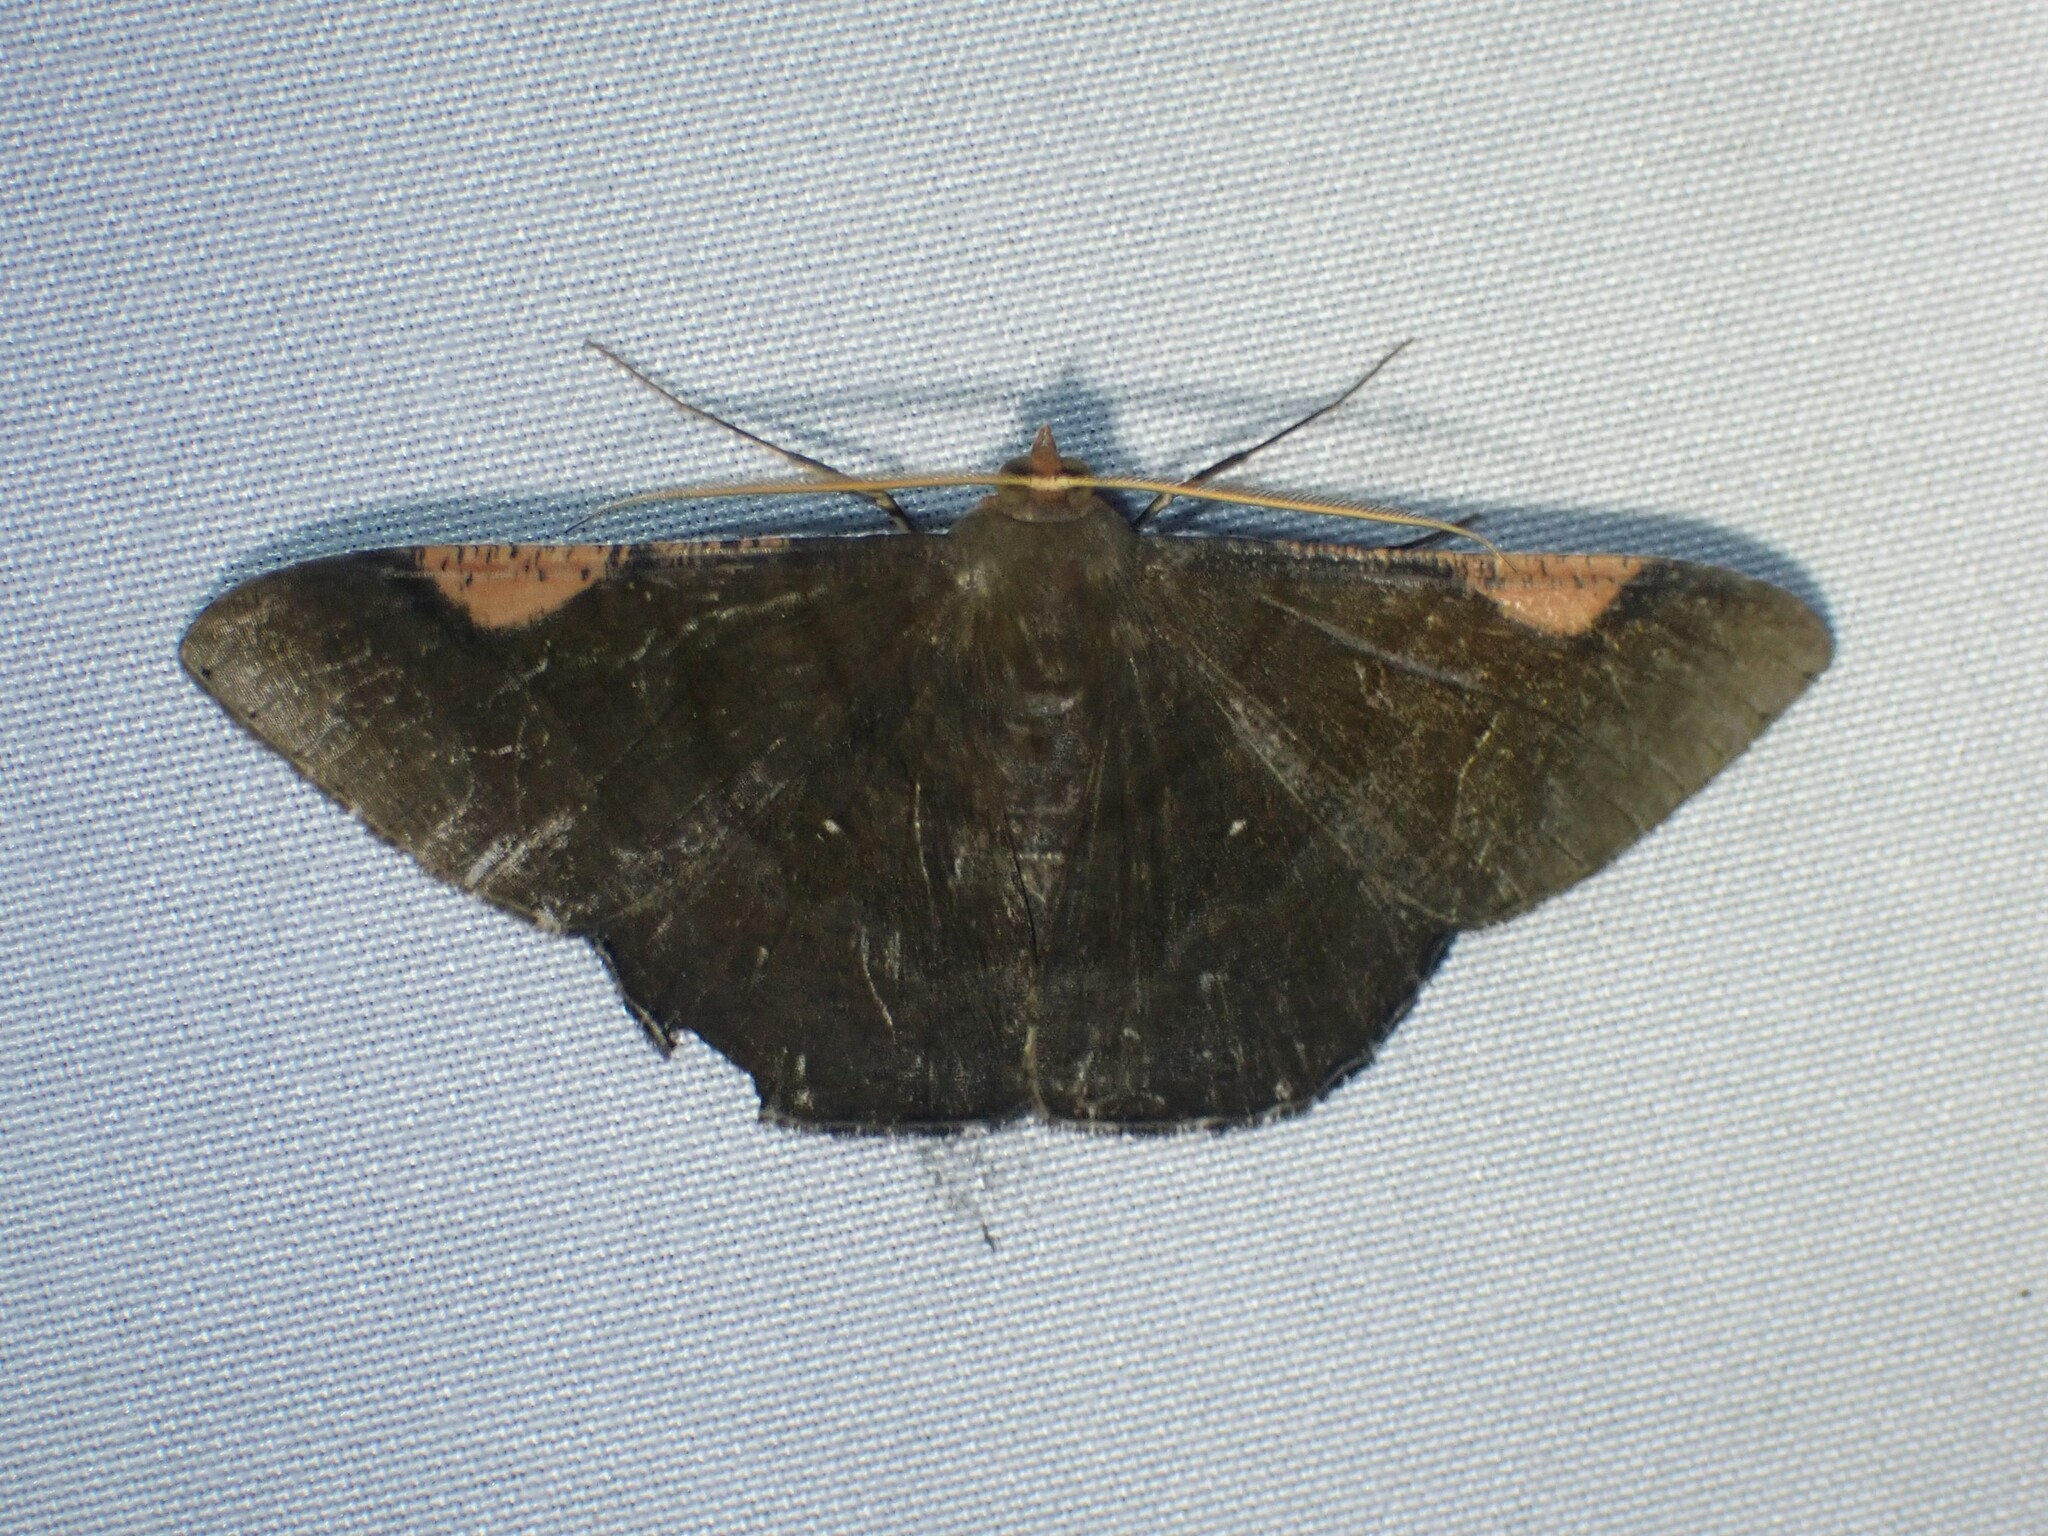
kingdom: Animalia
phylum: Arthropoda
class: Insecta
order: Lepidoptera
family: Geometridae
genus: Sphacelodes
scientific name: Sphacelodes vulneraria
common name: Looper moth
